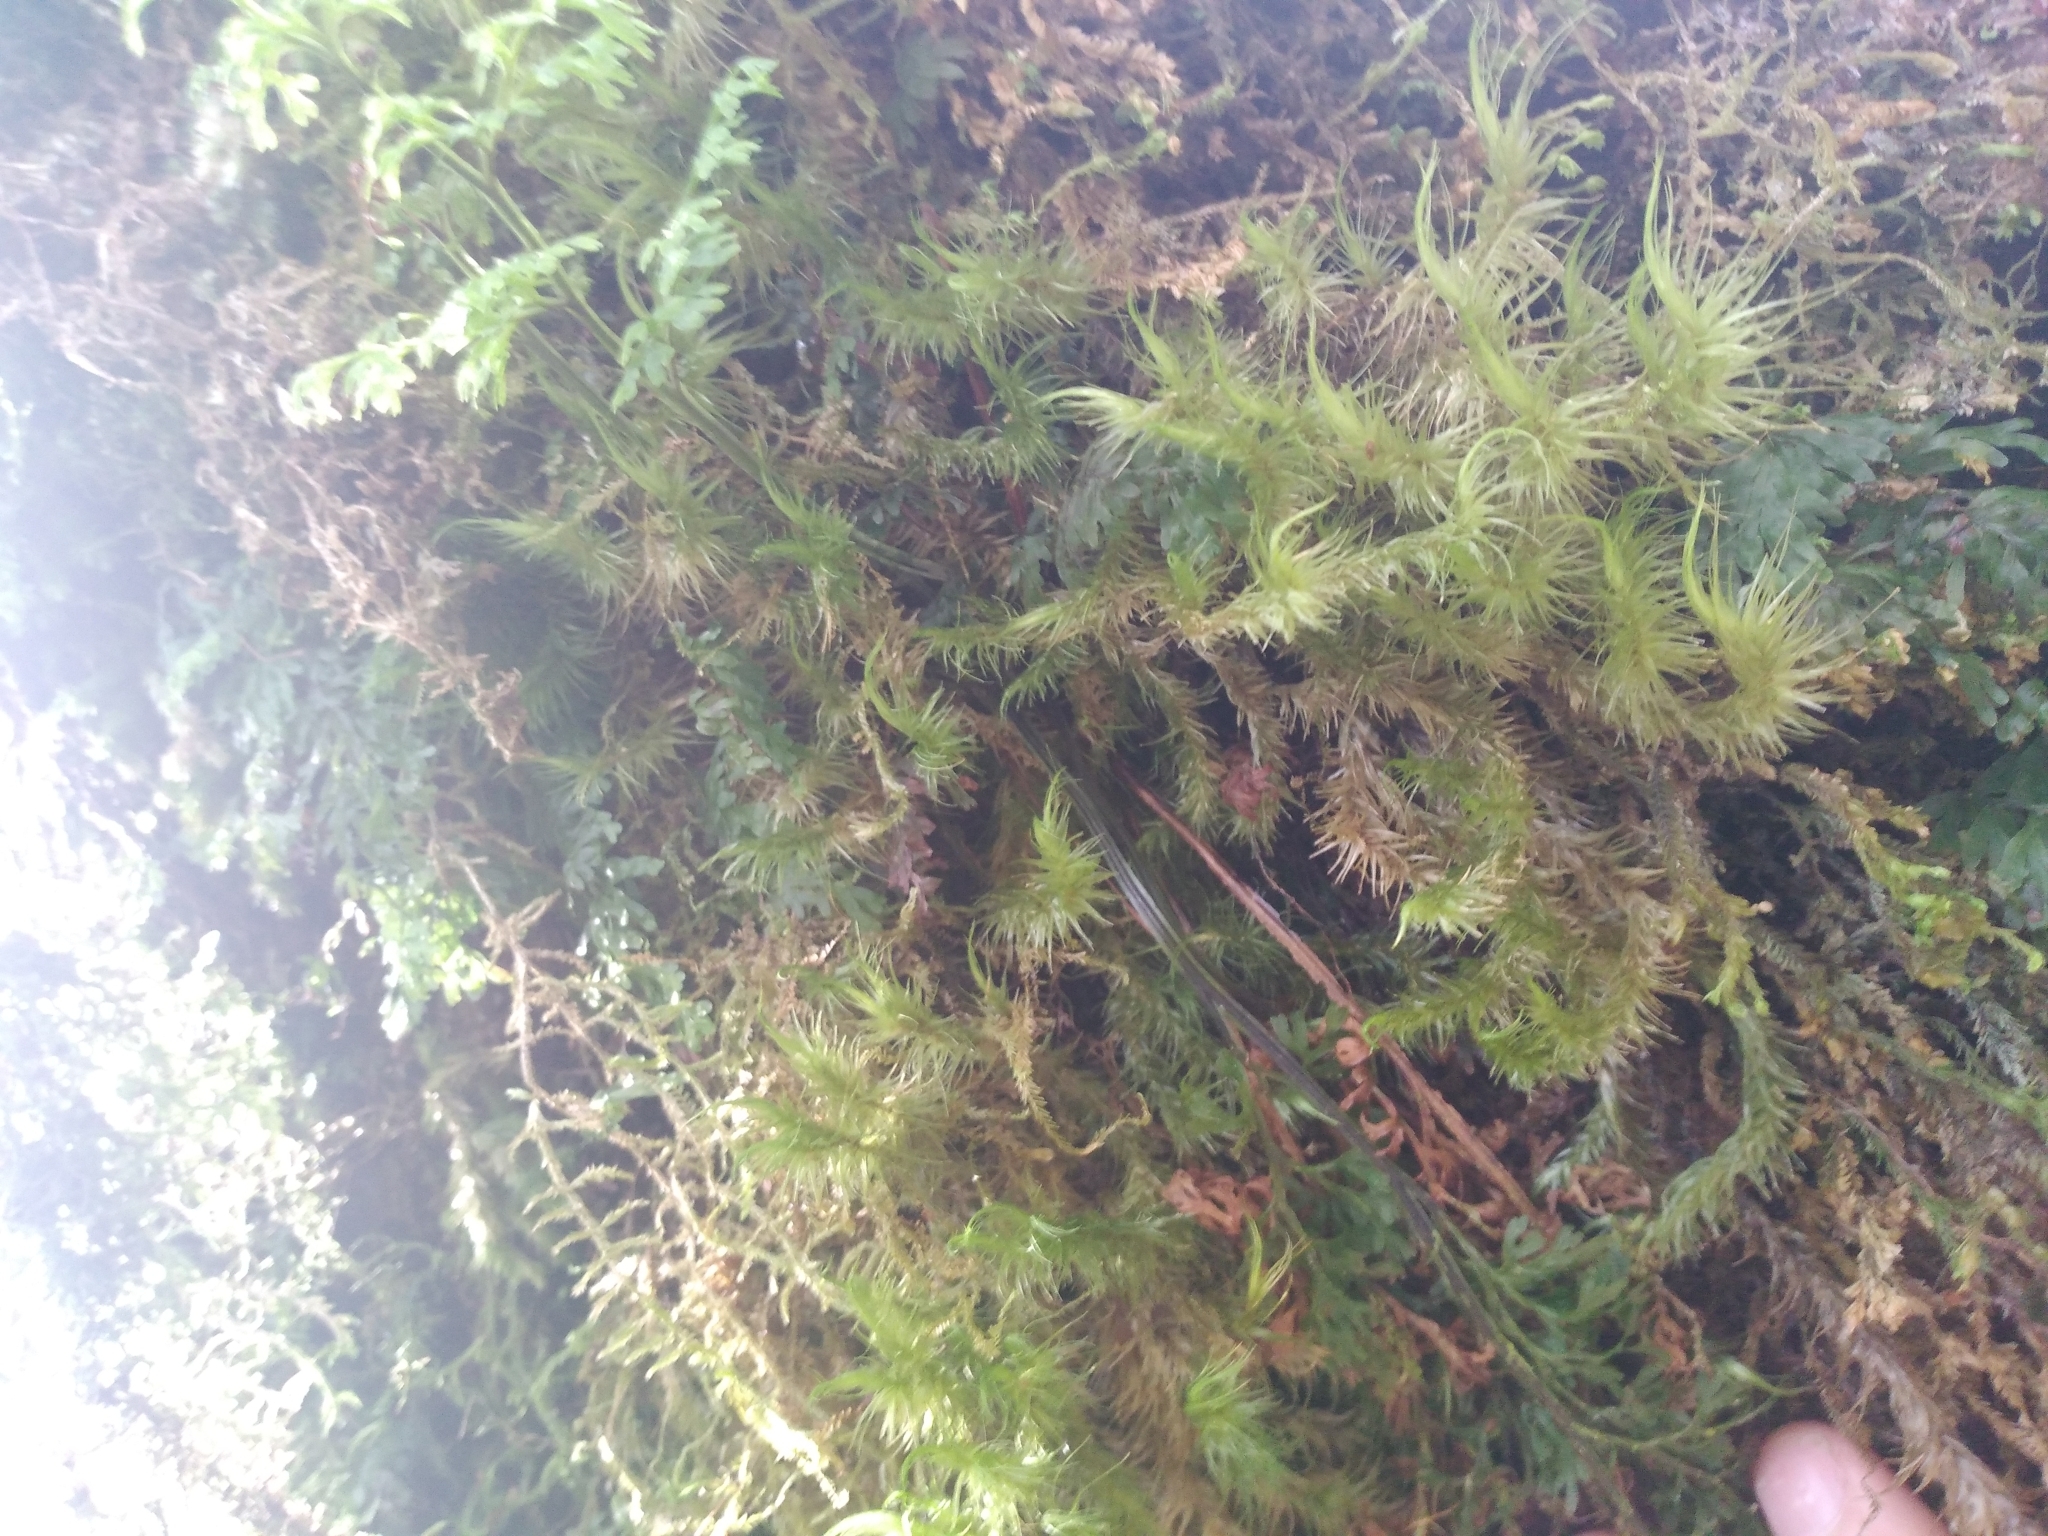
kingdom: Plantae
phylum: Tracheophyta
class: Polypodiopsida
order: Hymenophyllales
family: Hymenophyllaceae
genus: Hymenophyllum
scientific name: Hymenophyllum pulcherrimum
